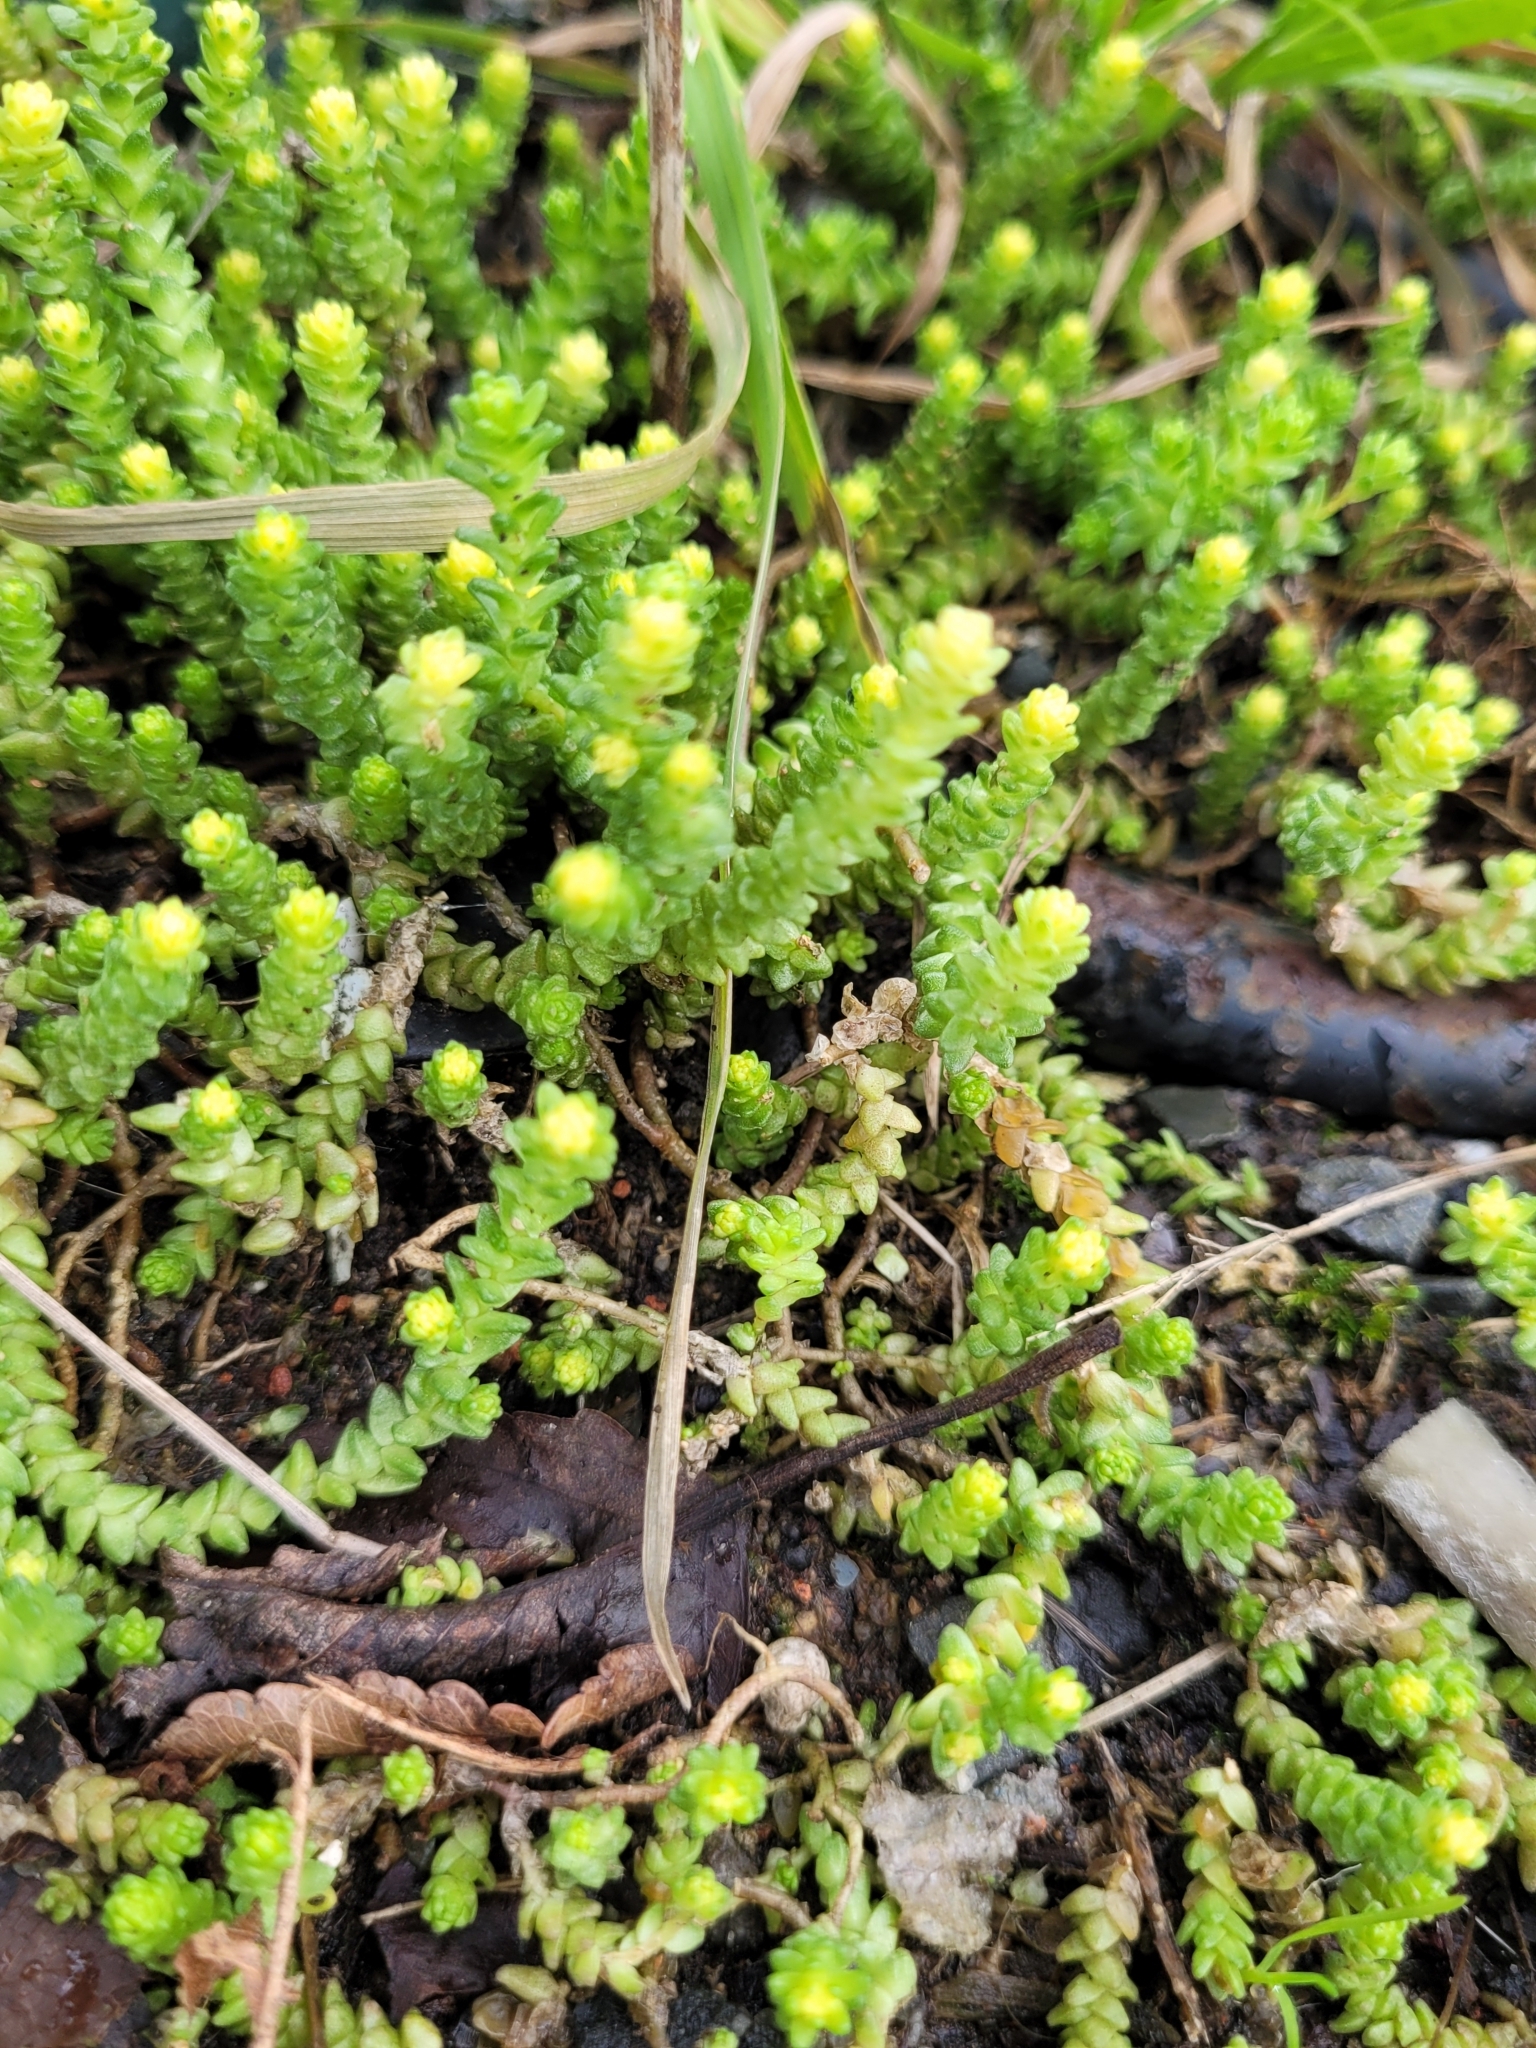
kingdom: Plantae
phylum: Tracheophyta
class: Magnoliopsida
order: Saxifragales
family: Crassulaceae
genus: Sedum
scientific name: Sedum acre
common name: Biting stonecrop
